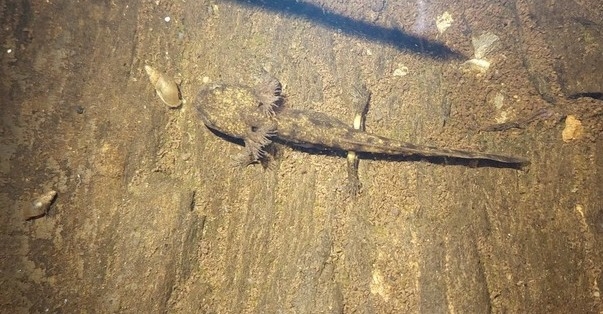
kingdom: Animalia
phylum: Chordata
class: Amphibia
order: Caudata
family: Salamandridae
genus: Salamandra
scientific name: Salamandra salamandra
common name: Fire salamander
